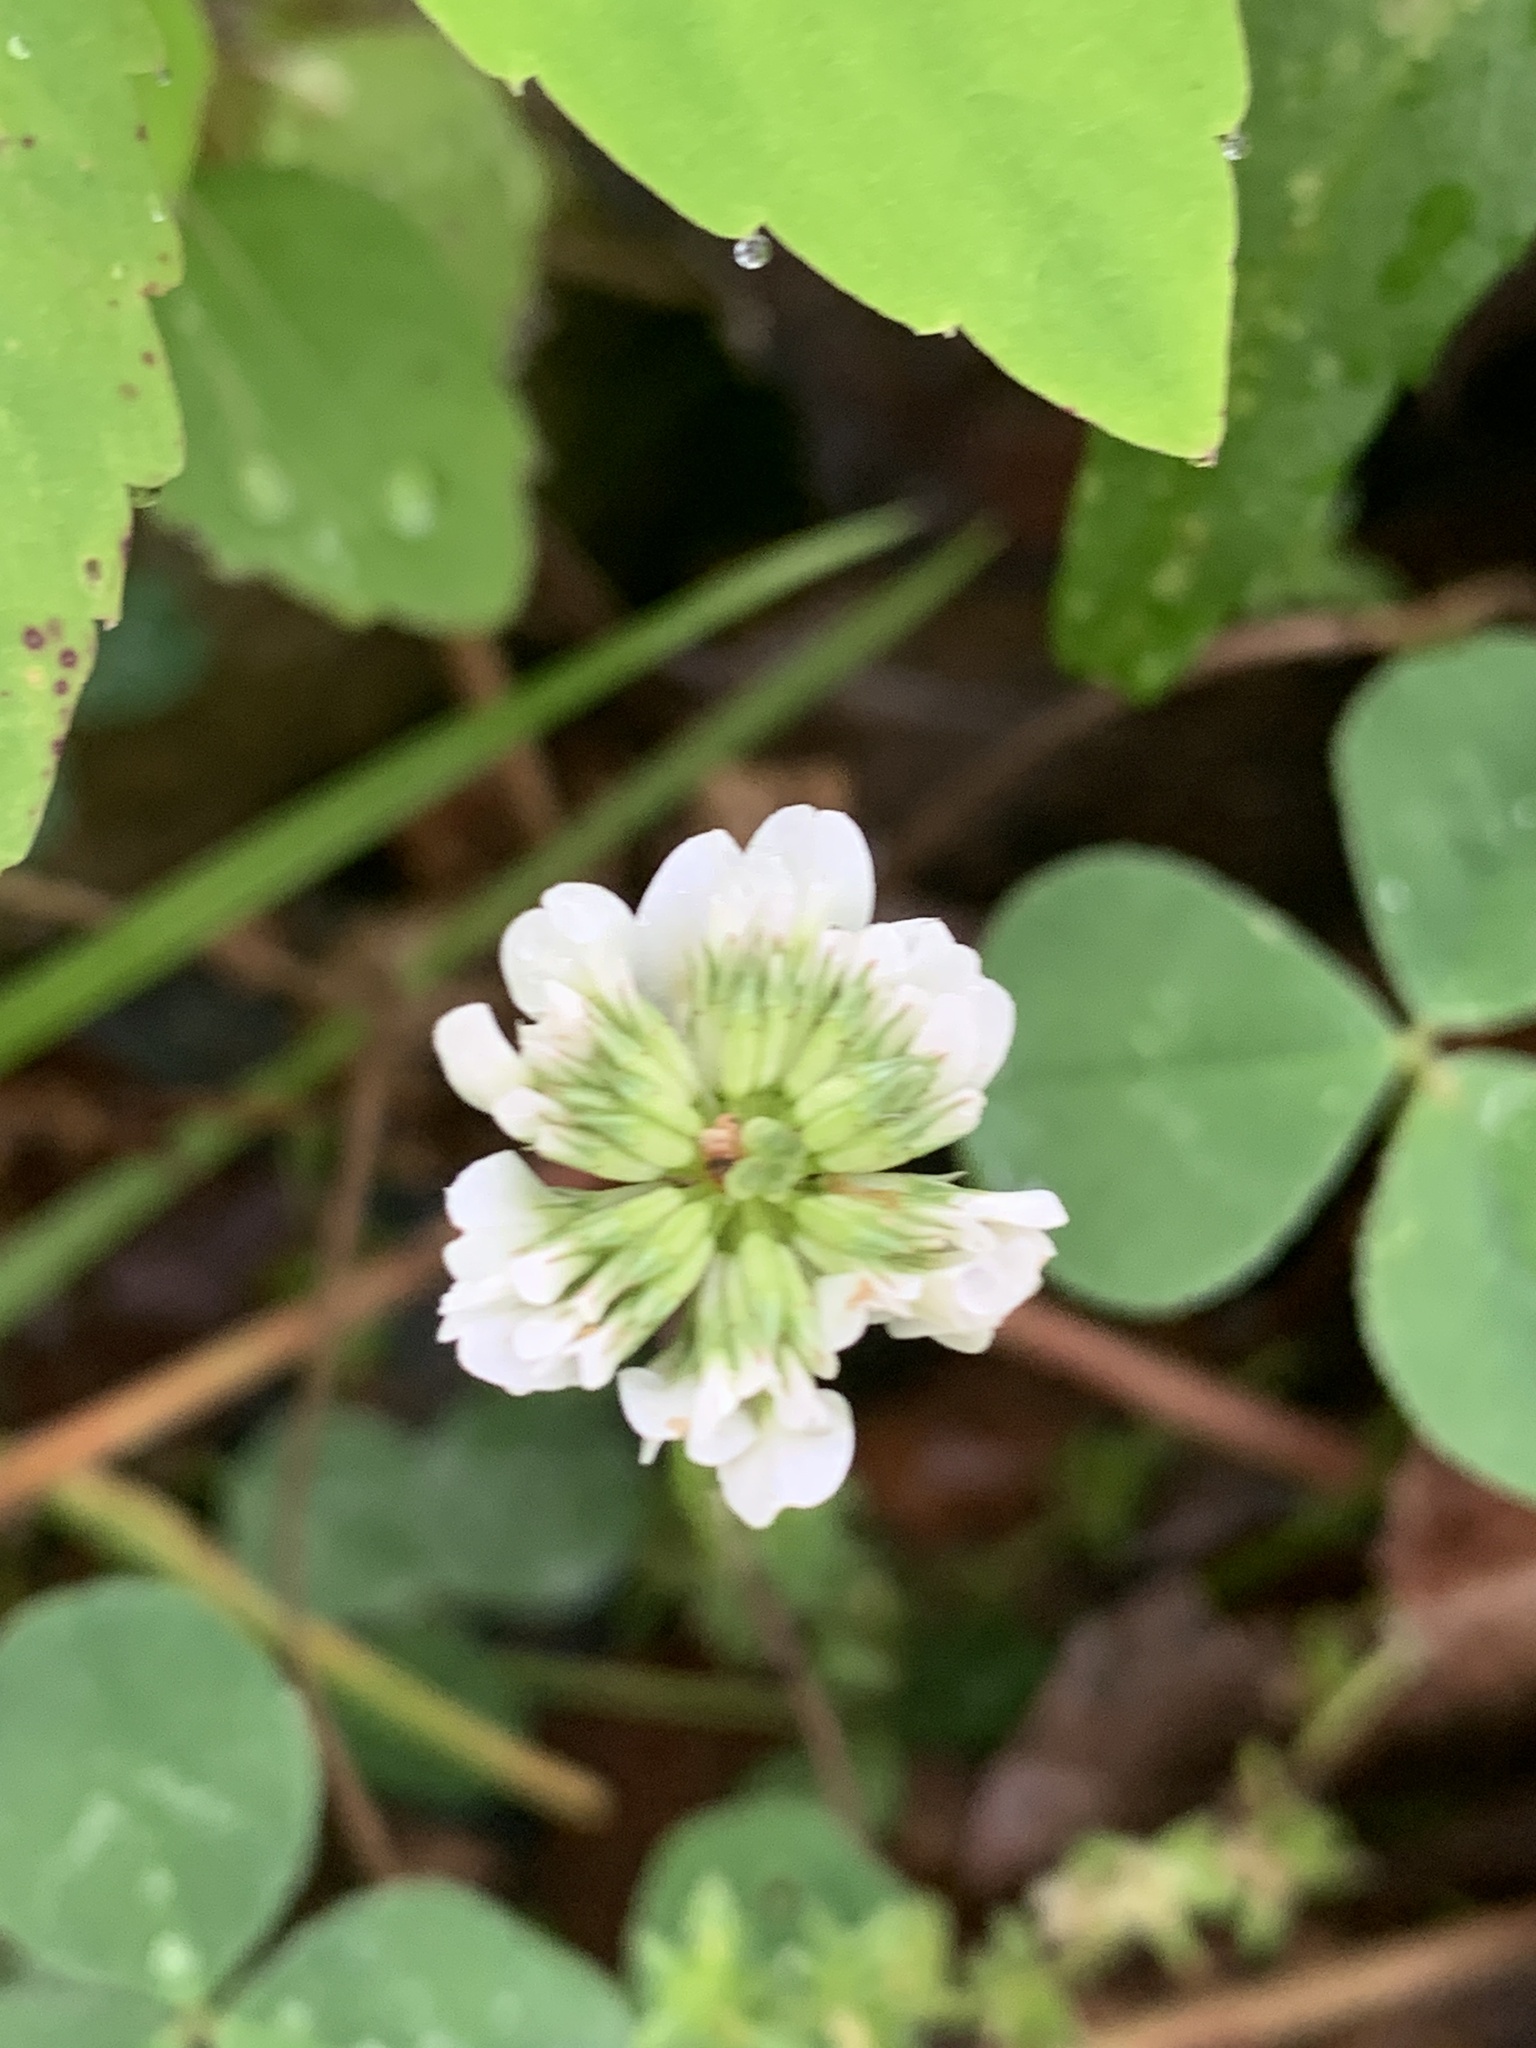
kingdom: Plantae
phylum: Tracheophyta
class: Magnoliopsida
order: Fabales
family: Fabaceae
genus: Trifolium
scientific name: Trifolium repens
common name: White clover
